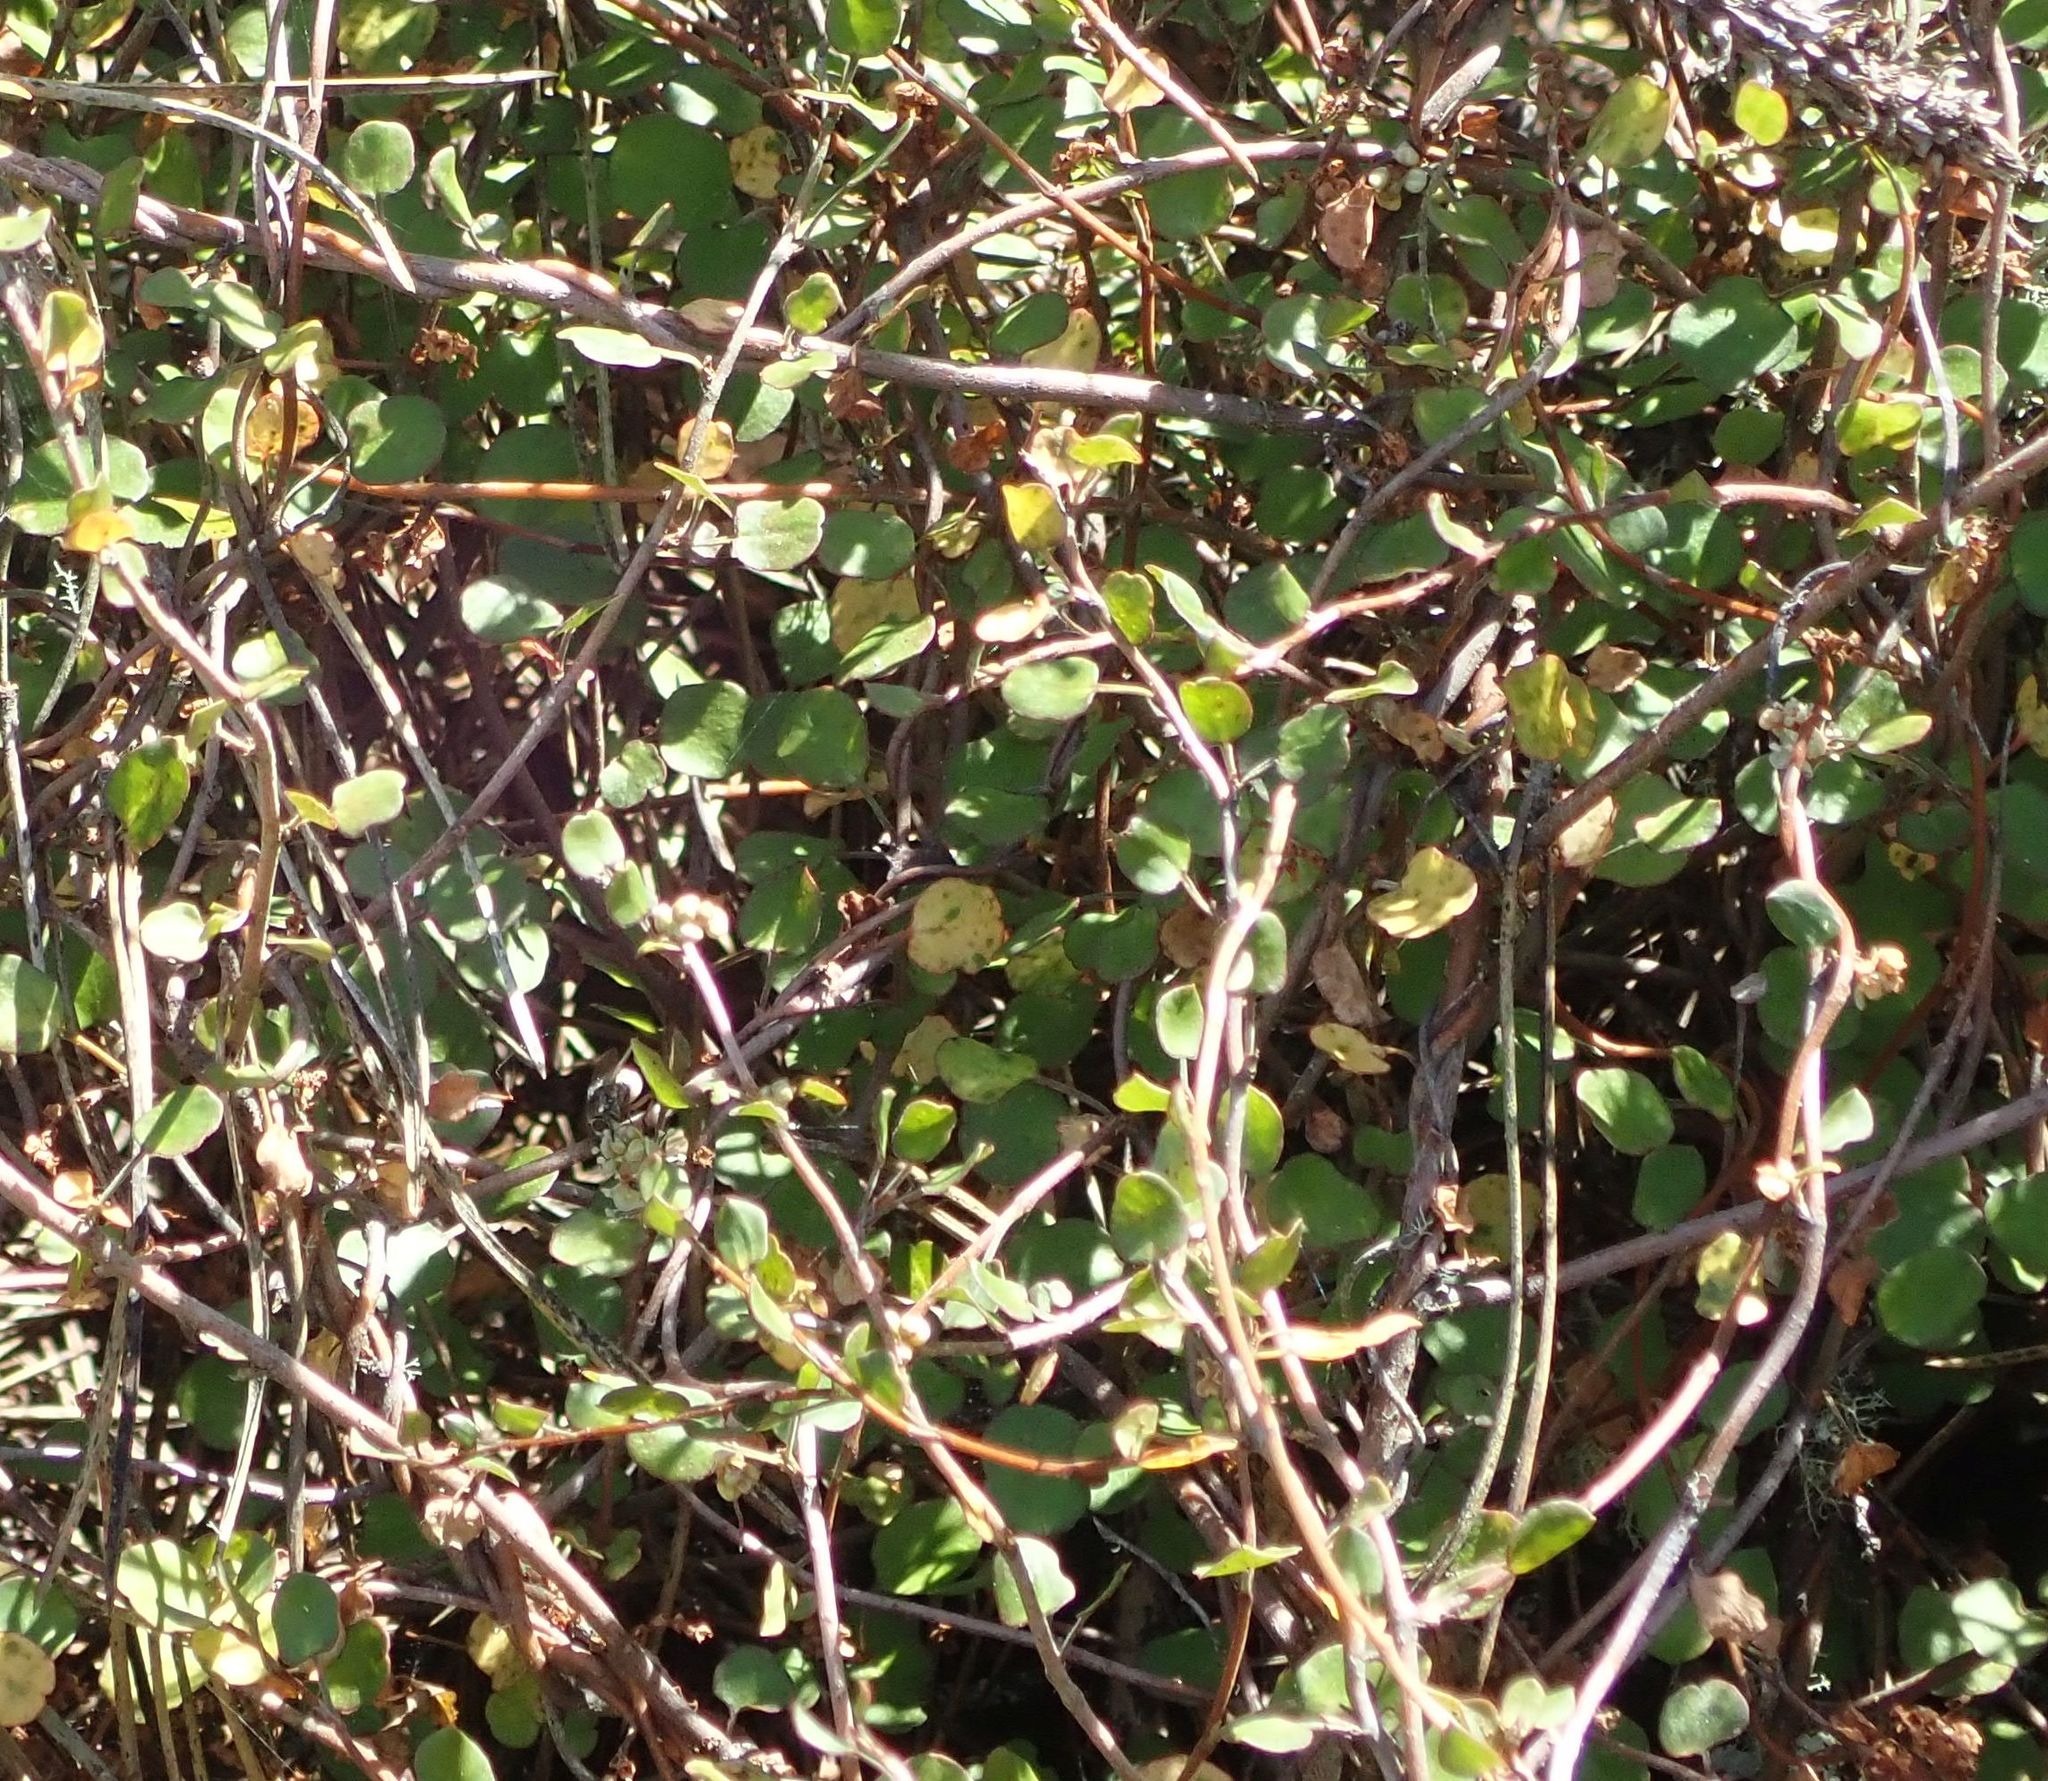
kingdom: Plantae
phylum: Tracheophyta
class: Magnoliopsida
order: Caryophyllales
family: Polygonaceae
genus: Muehlenbeckia
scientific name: Muehlenbeckia complexa
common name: Wireplant
